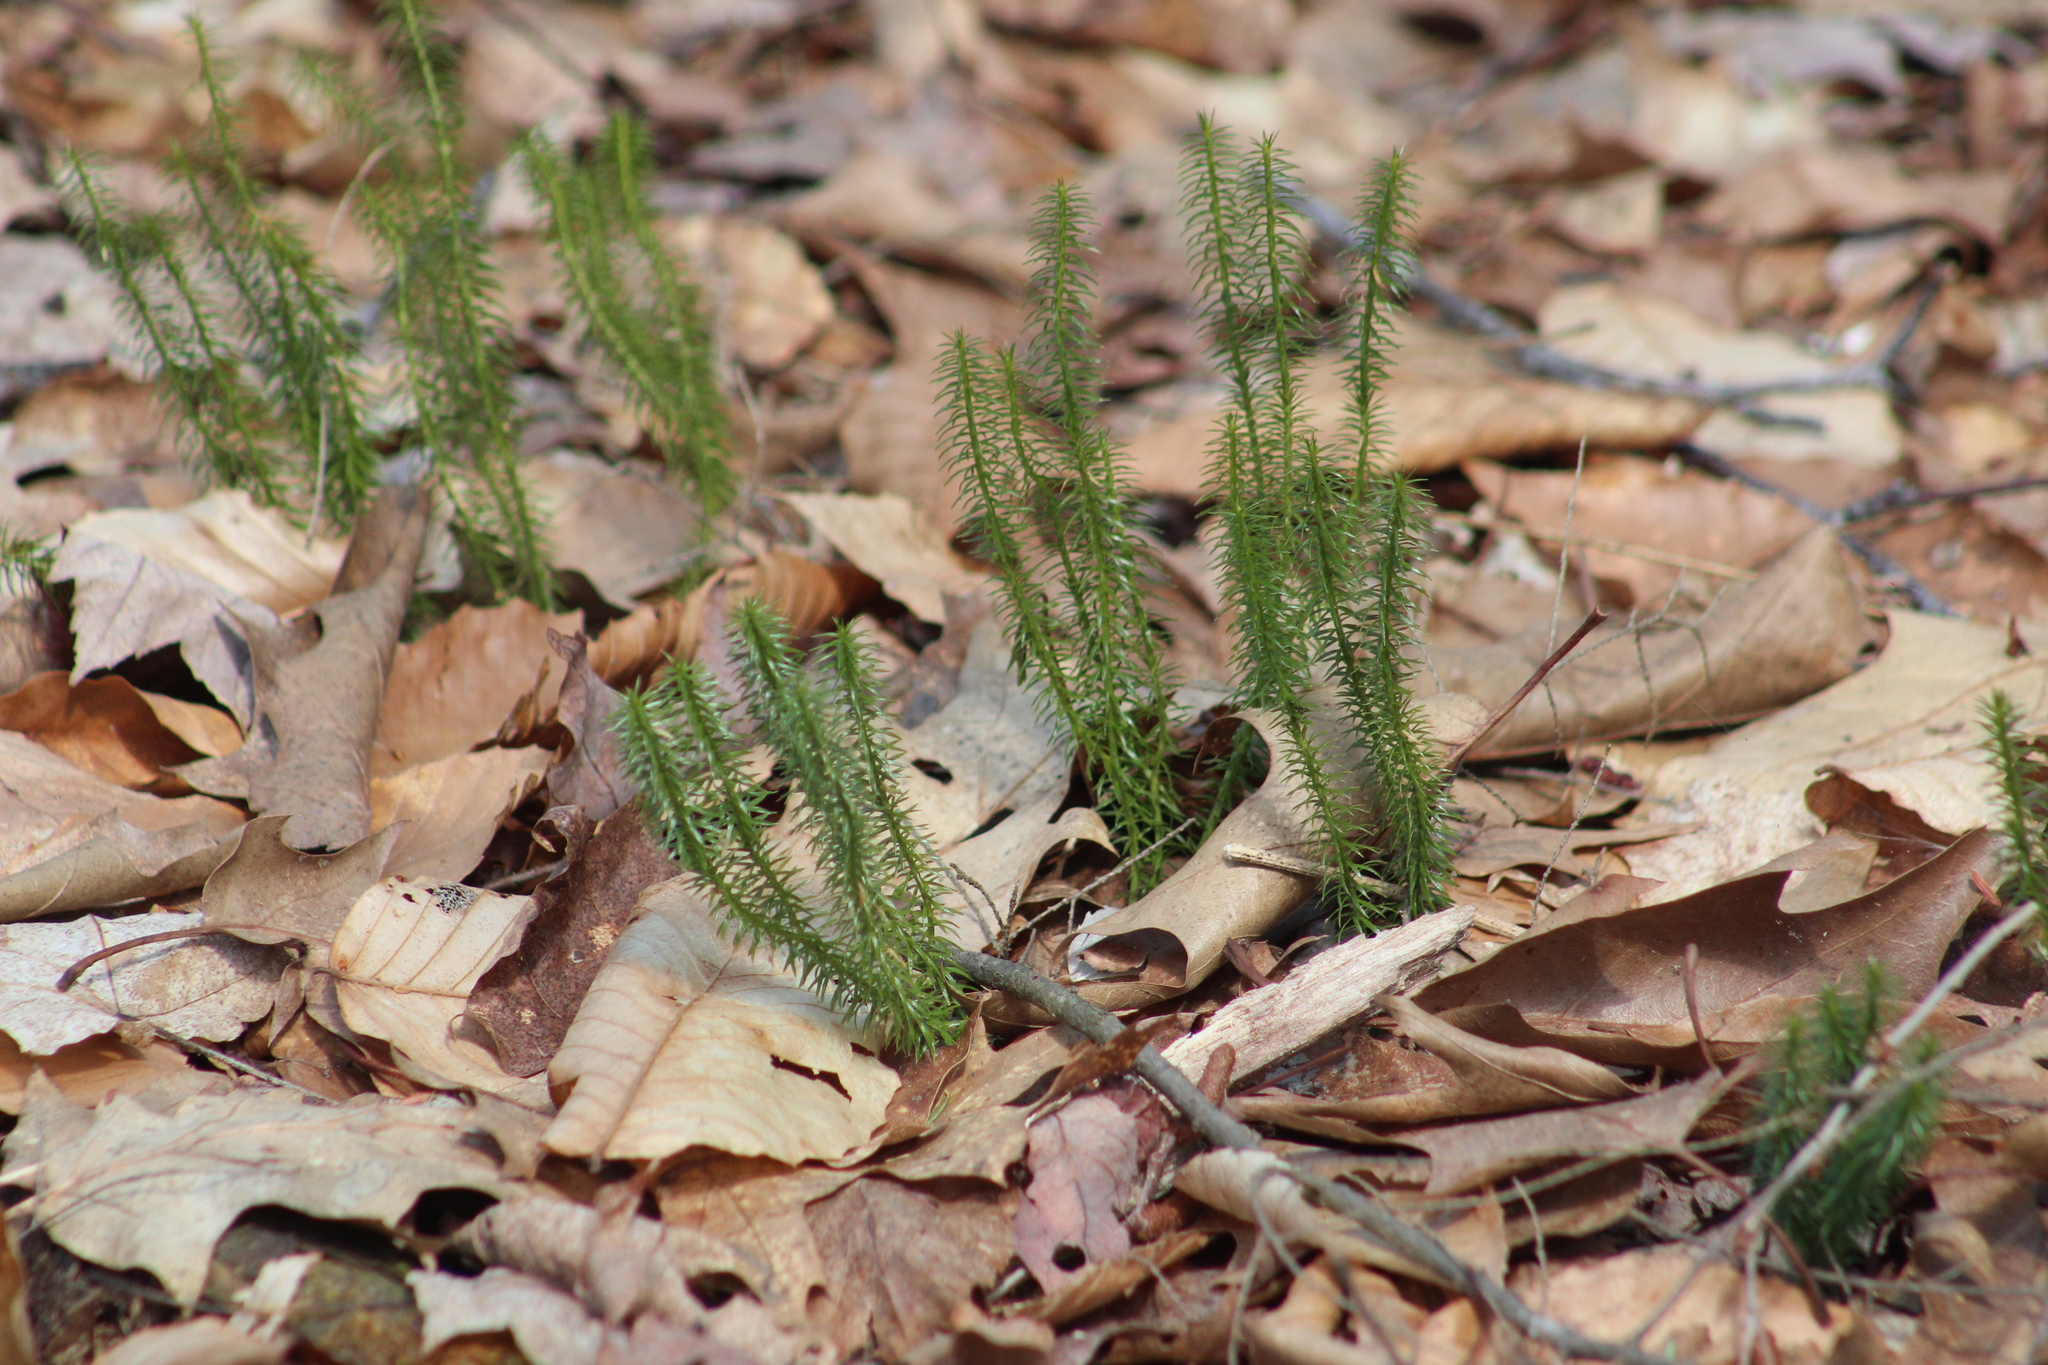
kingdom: Plantae
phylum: Tracheophyta
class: Lycopodiopsida
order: Lycopodiales
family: Lycopodiaceae
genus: Spinulum
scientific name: Spinulum annotinum
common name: Interrupted club-moss
